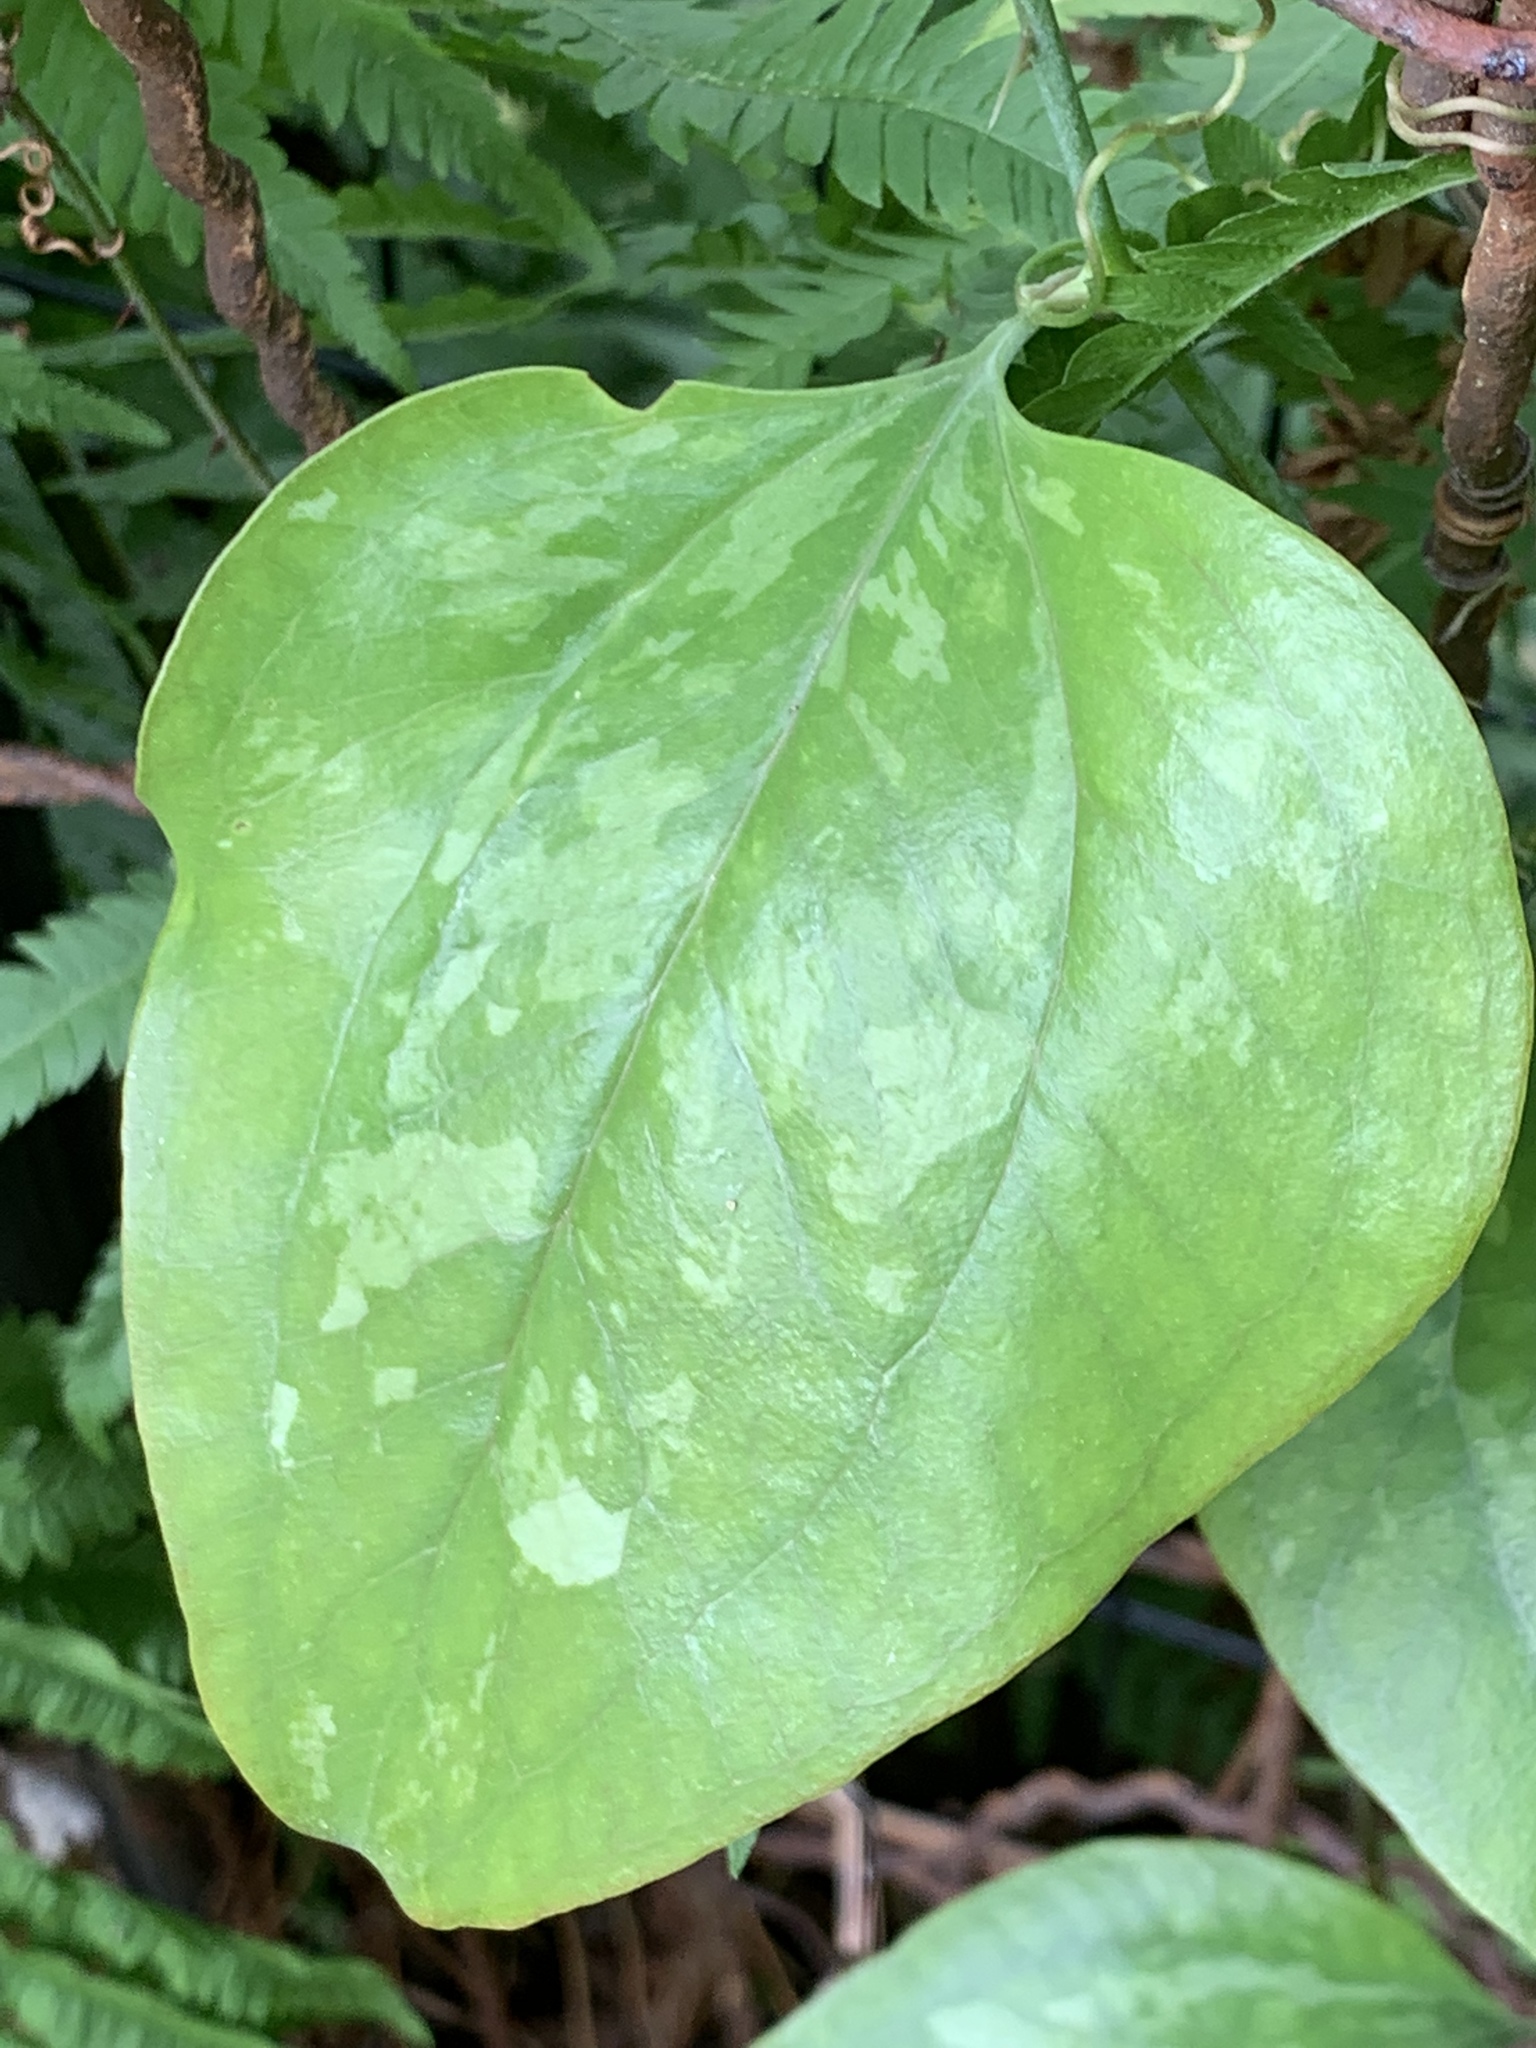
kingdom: Plantae
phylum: Tracheophyta
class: Liliopsida
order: Liliales
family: Smilacaceae
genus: Smilax
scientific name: Smilax glauca
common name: Cat greenbrier
